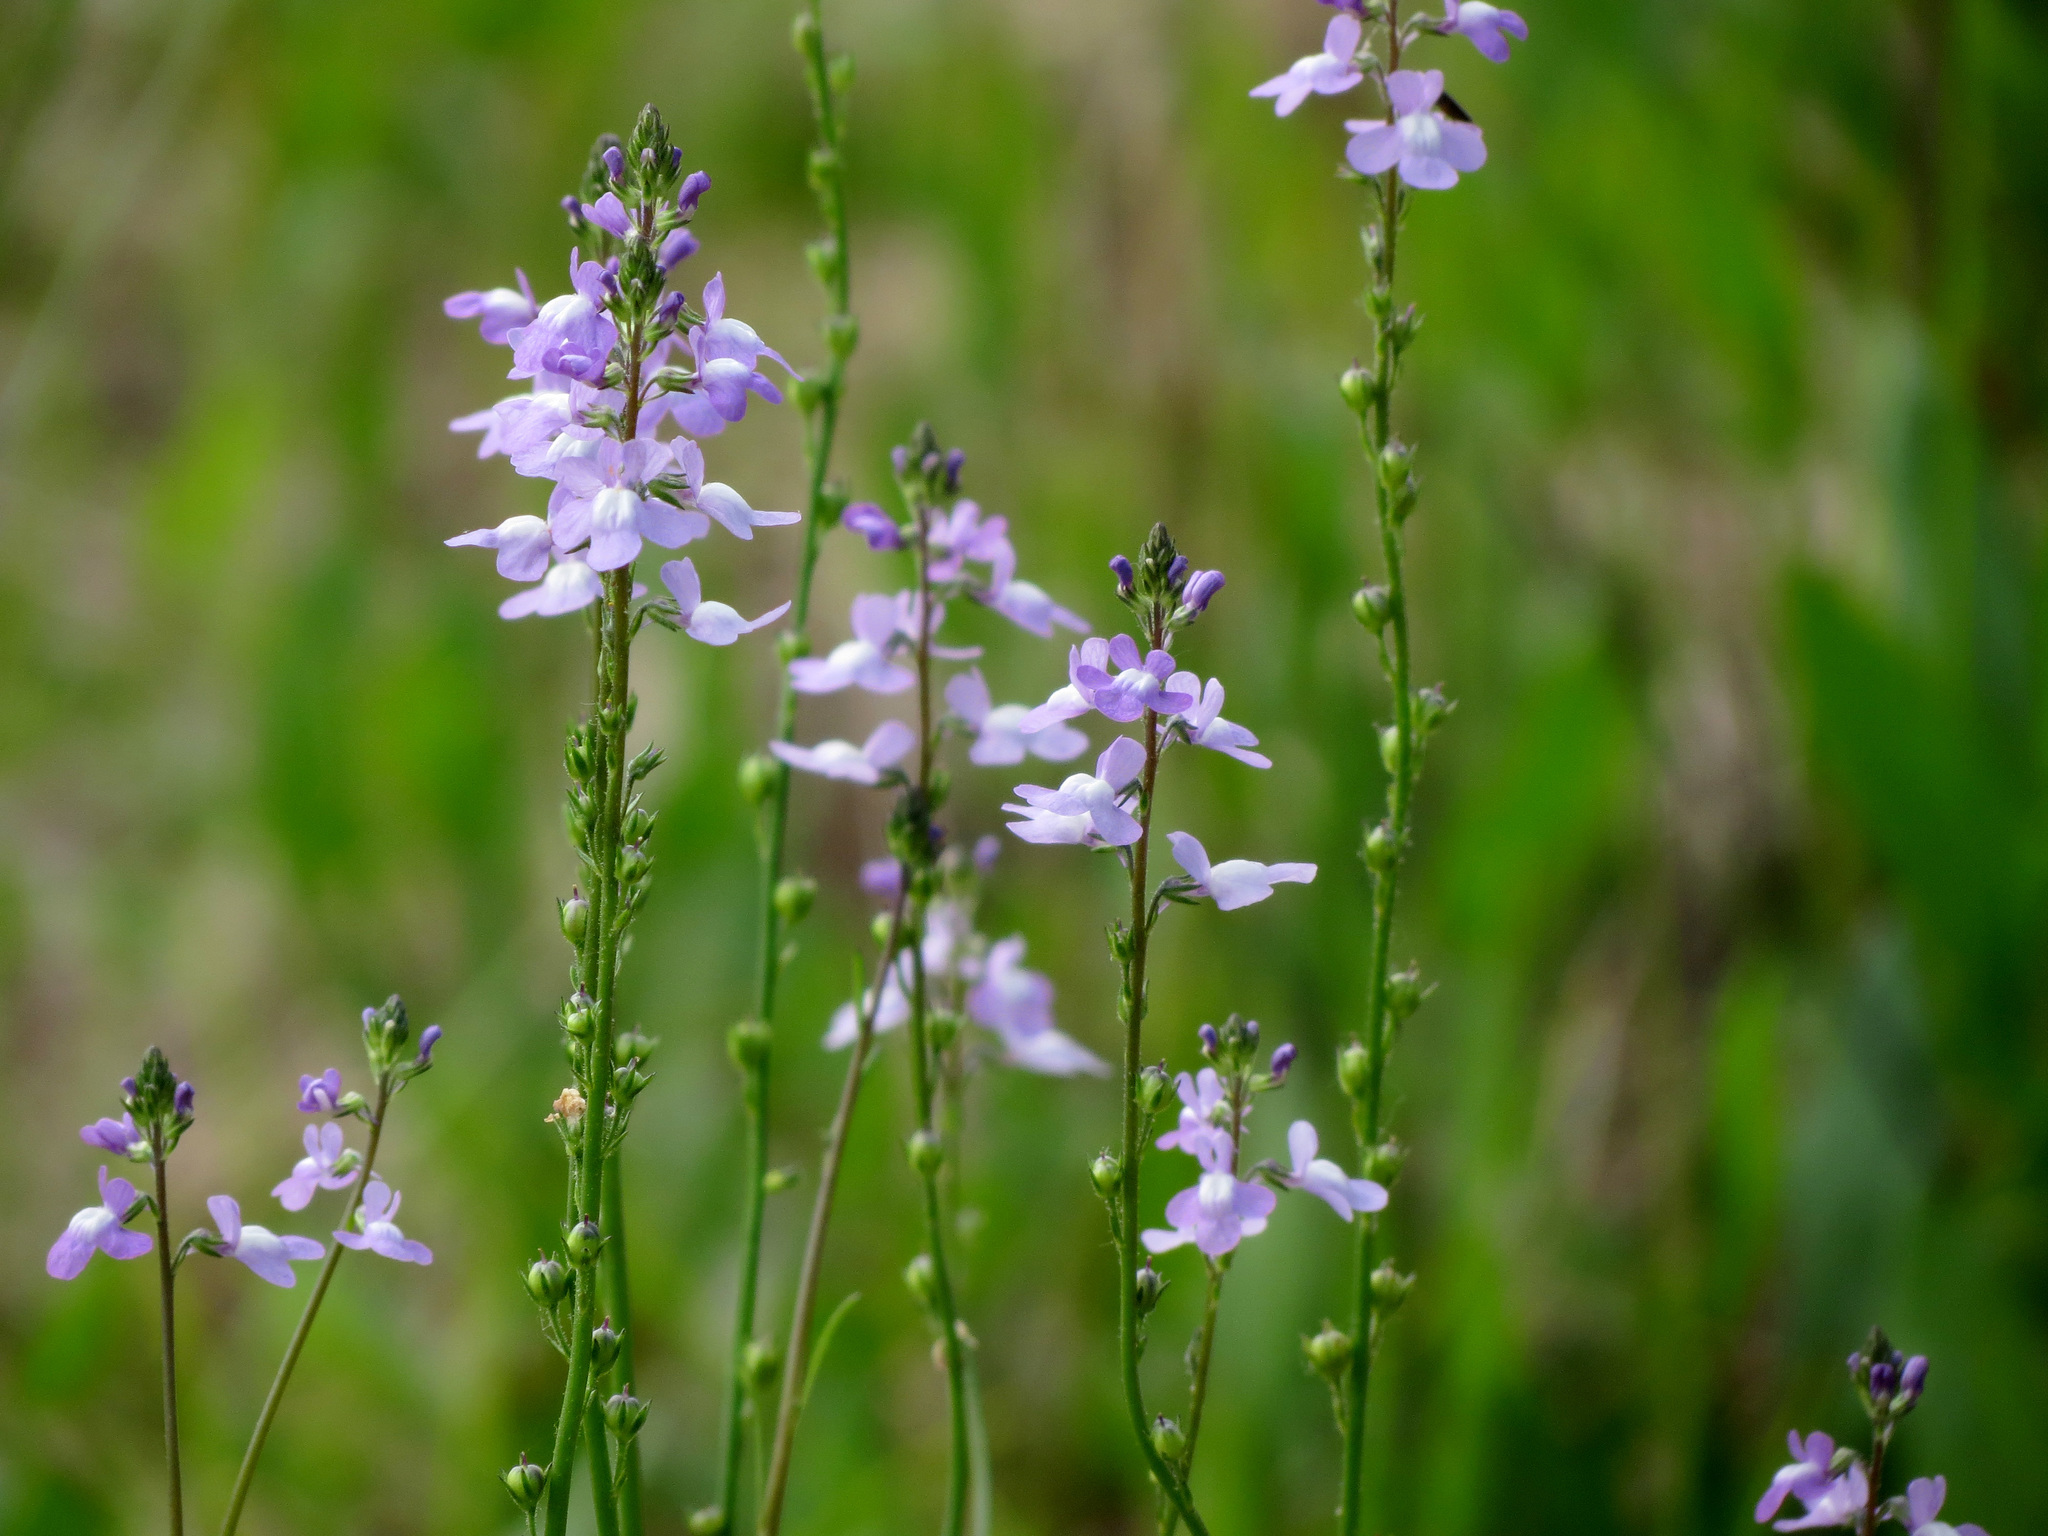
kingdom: Plantae
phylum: Tracheophyta
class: Magnoliopsida
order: Lamiales
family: Plantaginaceae
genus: Nuttallanthus
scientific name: Nuttallanthus canadensis
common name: Blue toadflax
